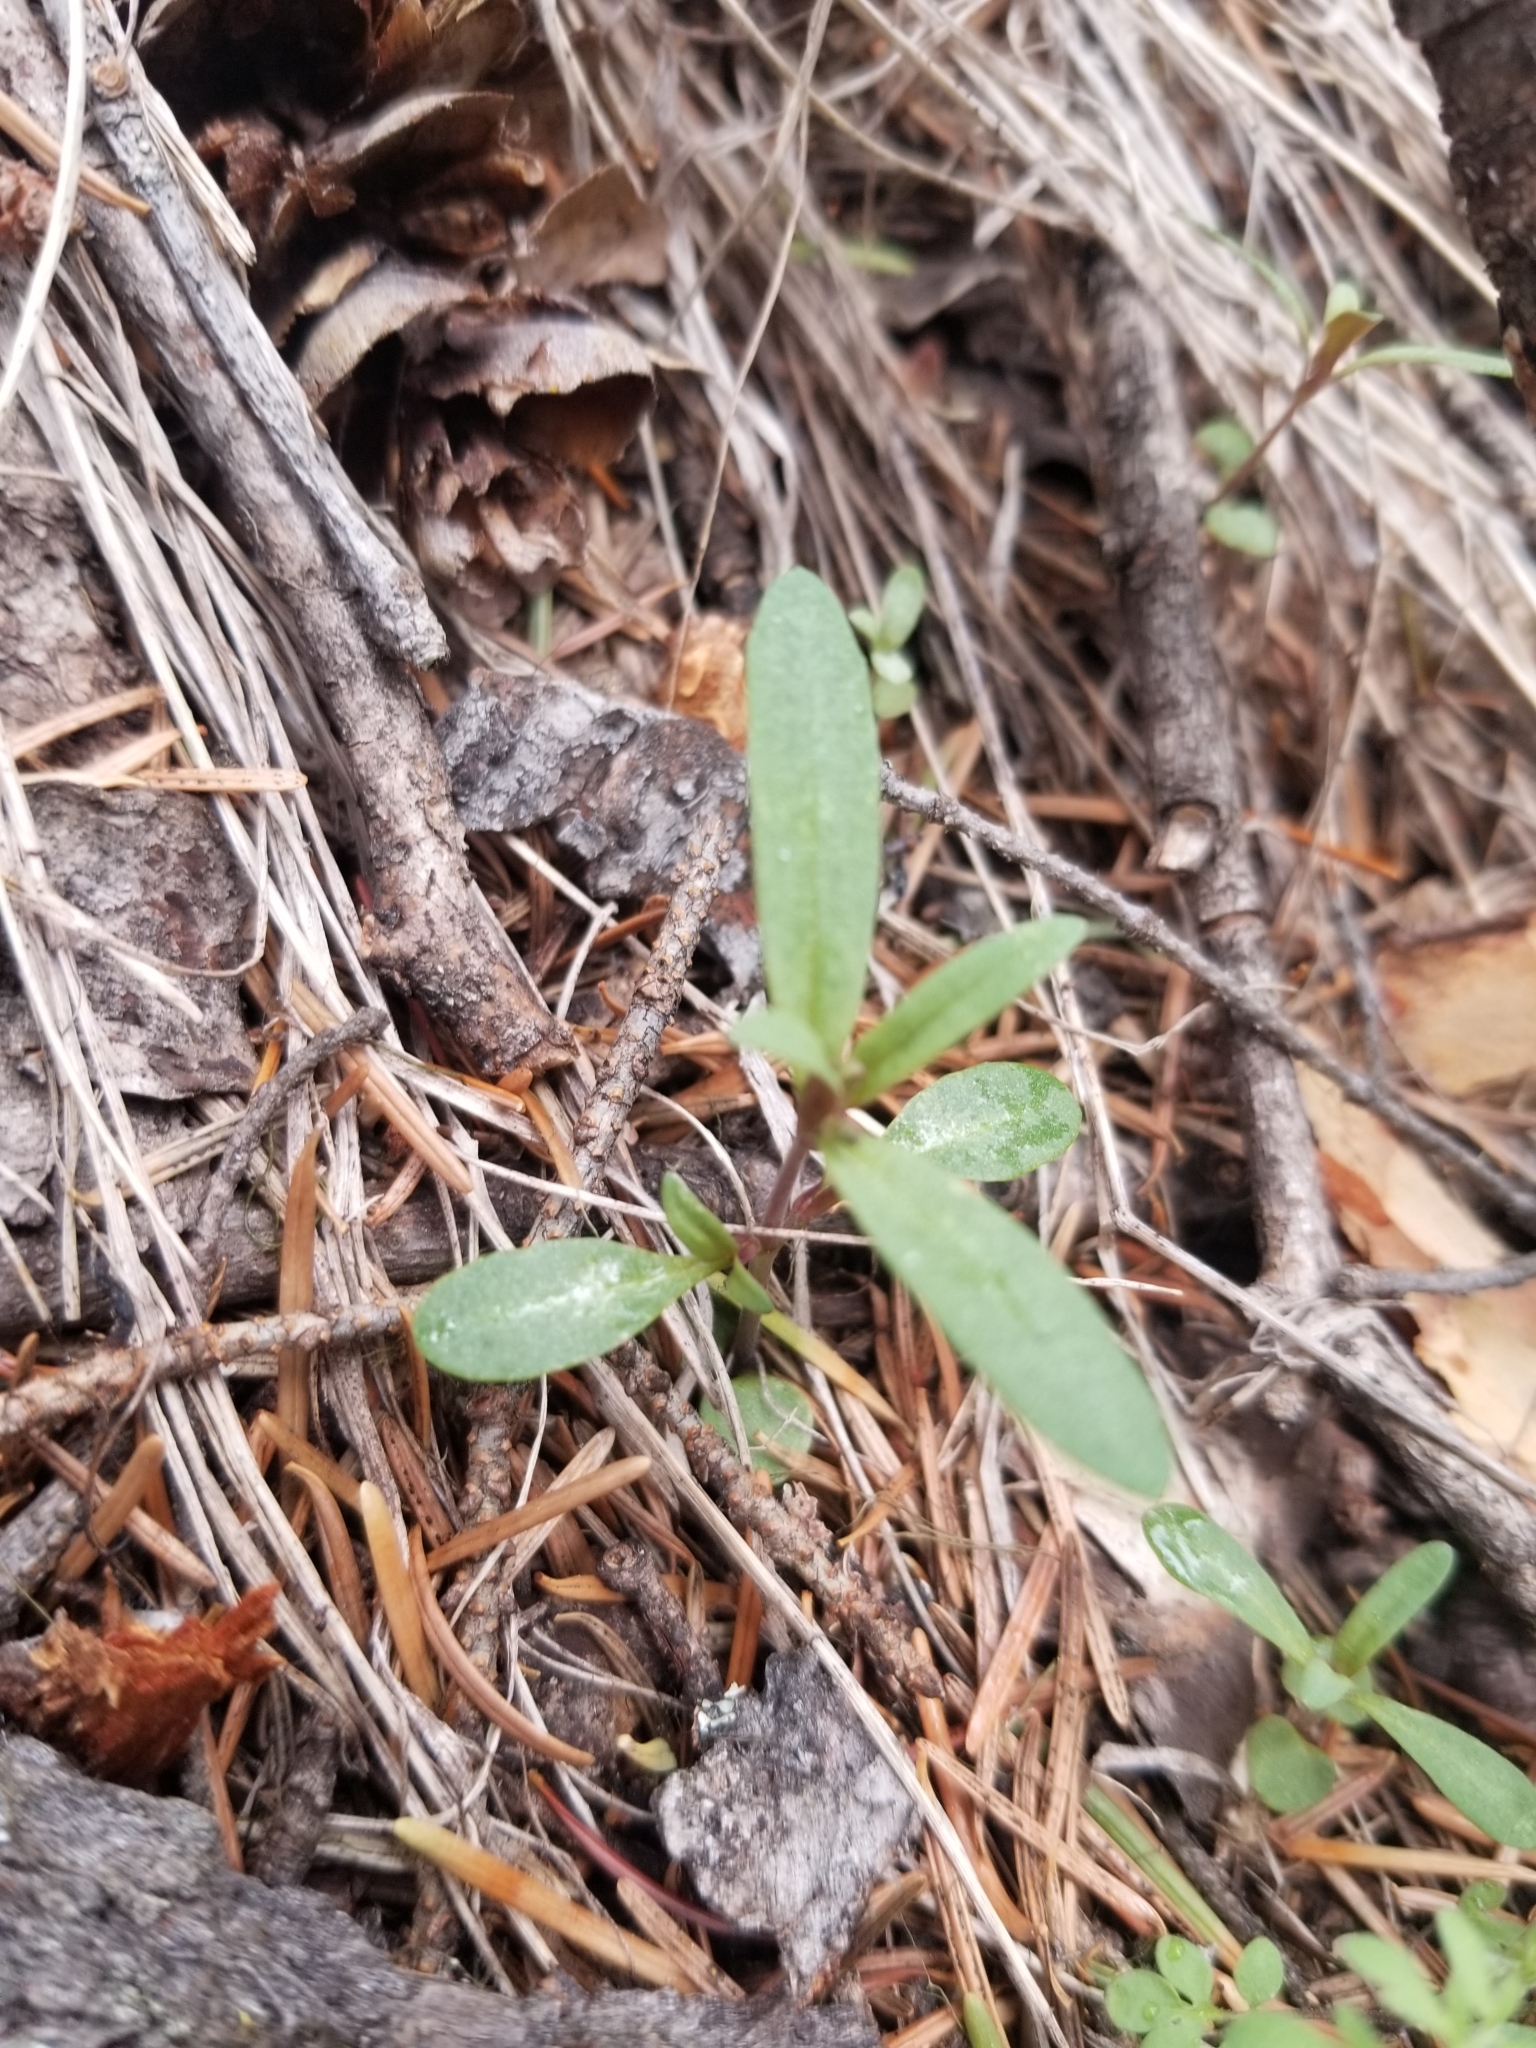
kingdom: Plantae
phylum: Tracheophyta
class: Magnoliopsida
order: Lamiales
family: Plantaginaceae
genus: Collinsia
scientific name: Collinsia parviflora
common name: Blue-lips
